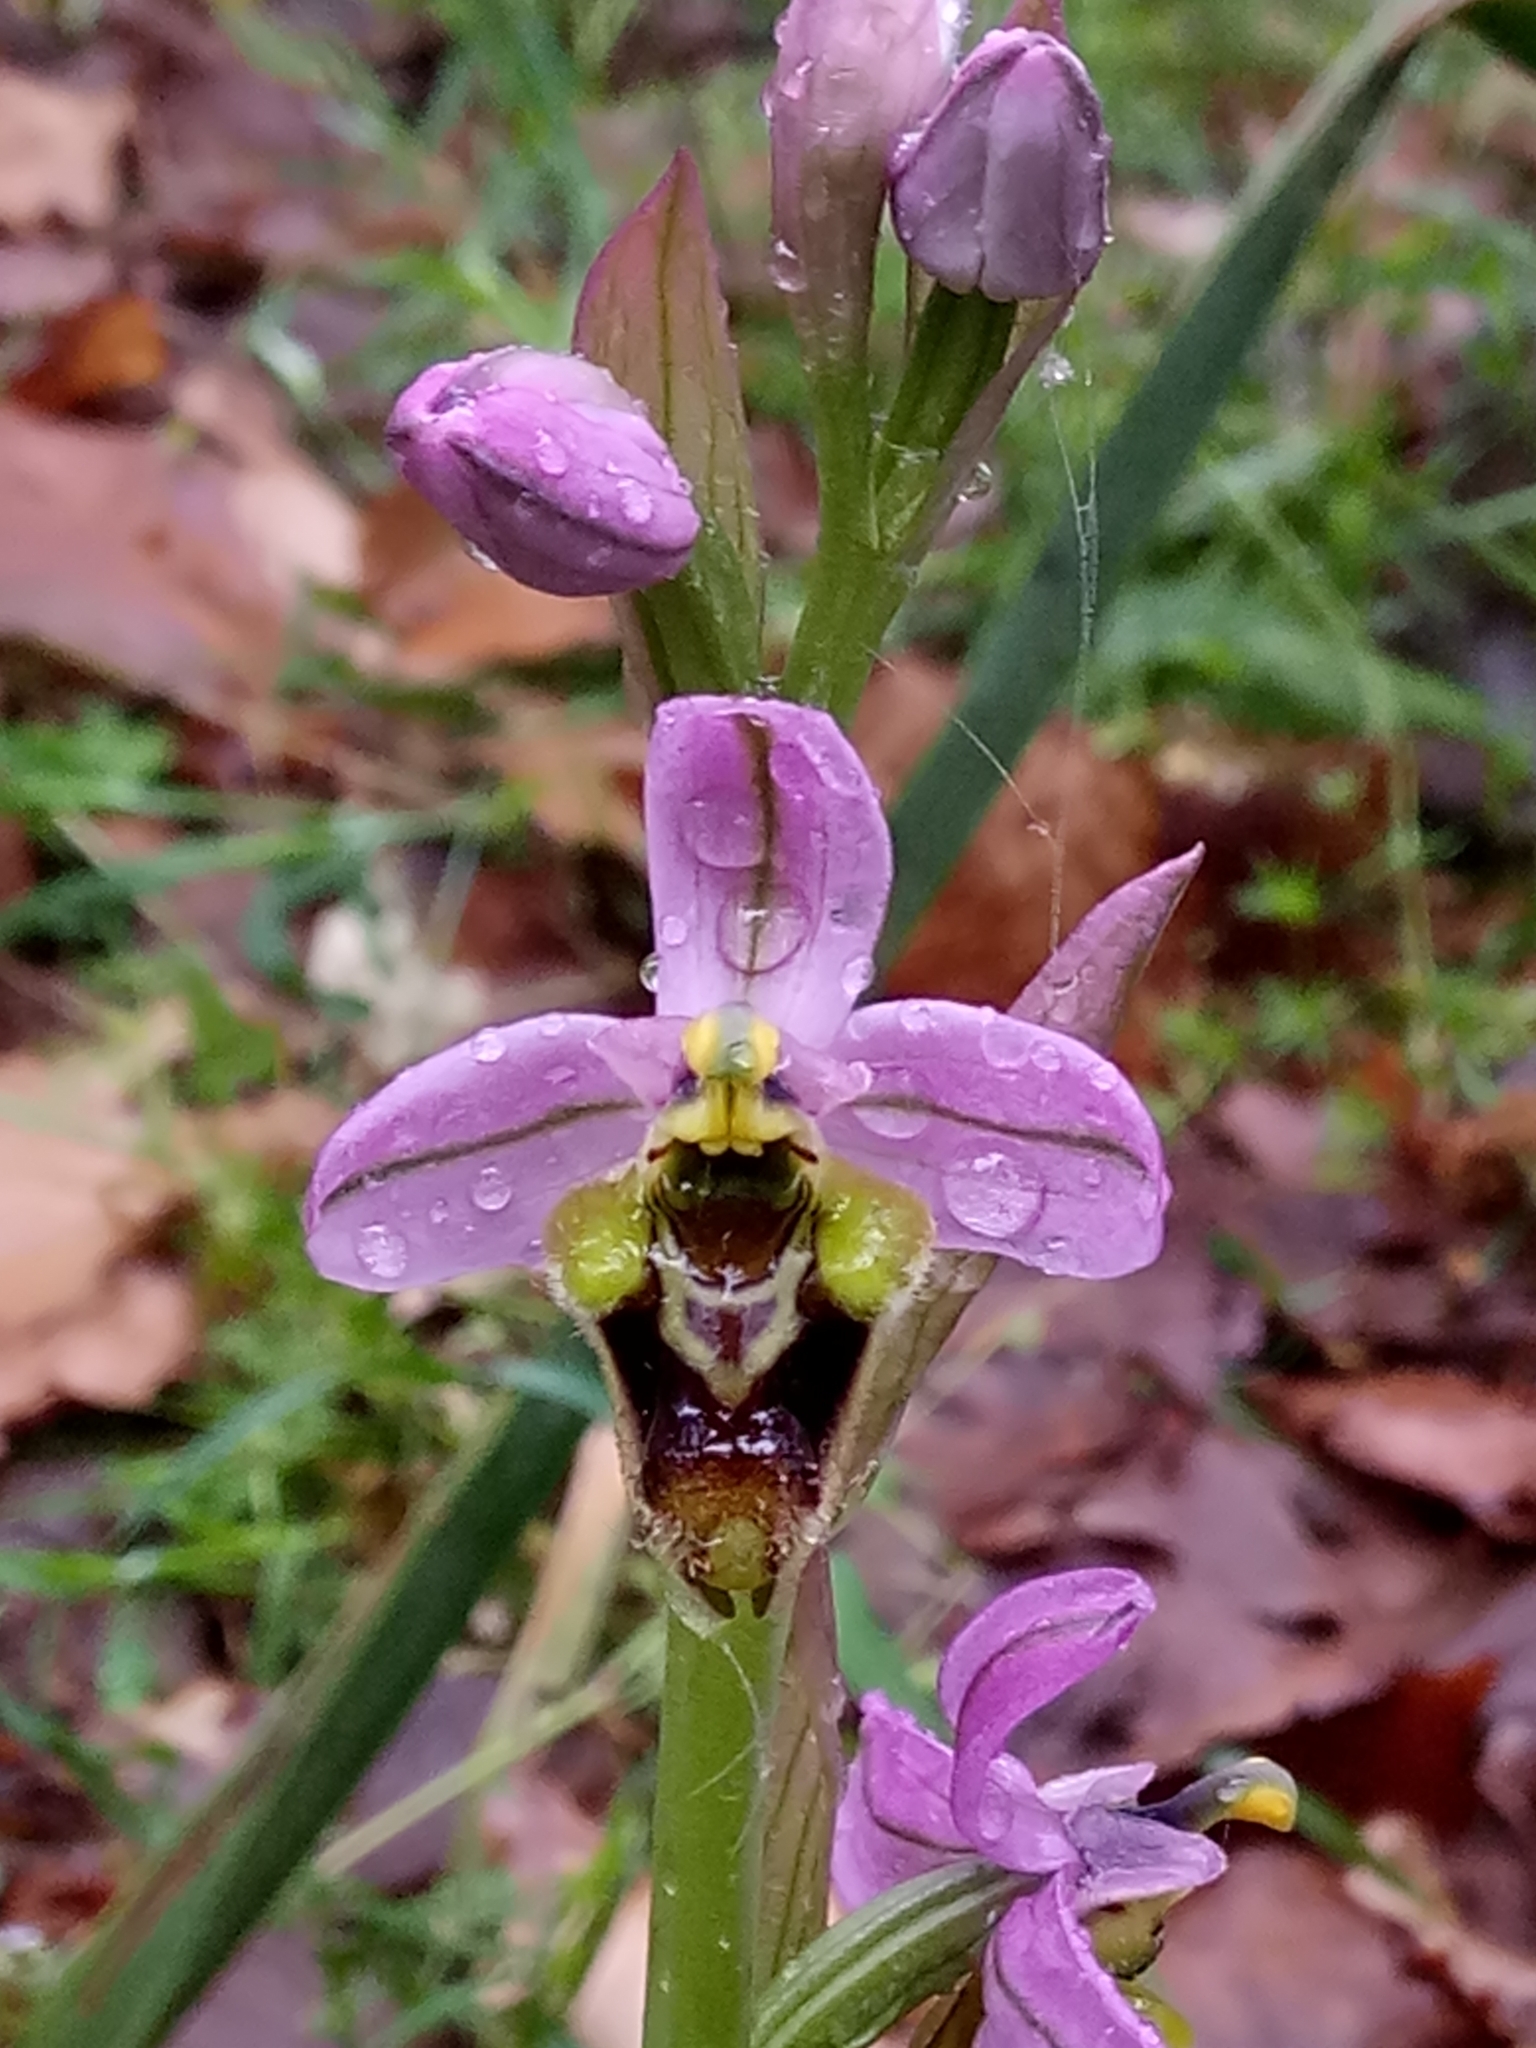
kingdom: Plantae
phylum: Tracheophyta
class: Liliopsida
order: Asparagales
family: Orchidaceae
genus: Ophrys
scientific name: Ophrys tenthredinifera
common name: Sawfly orchid
